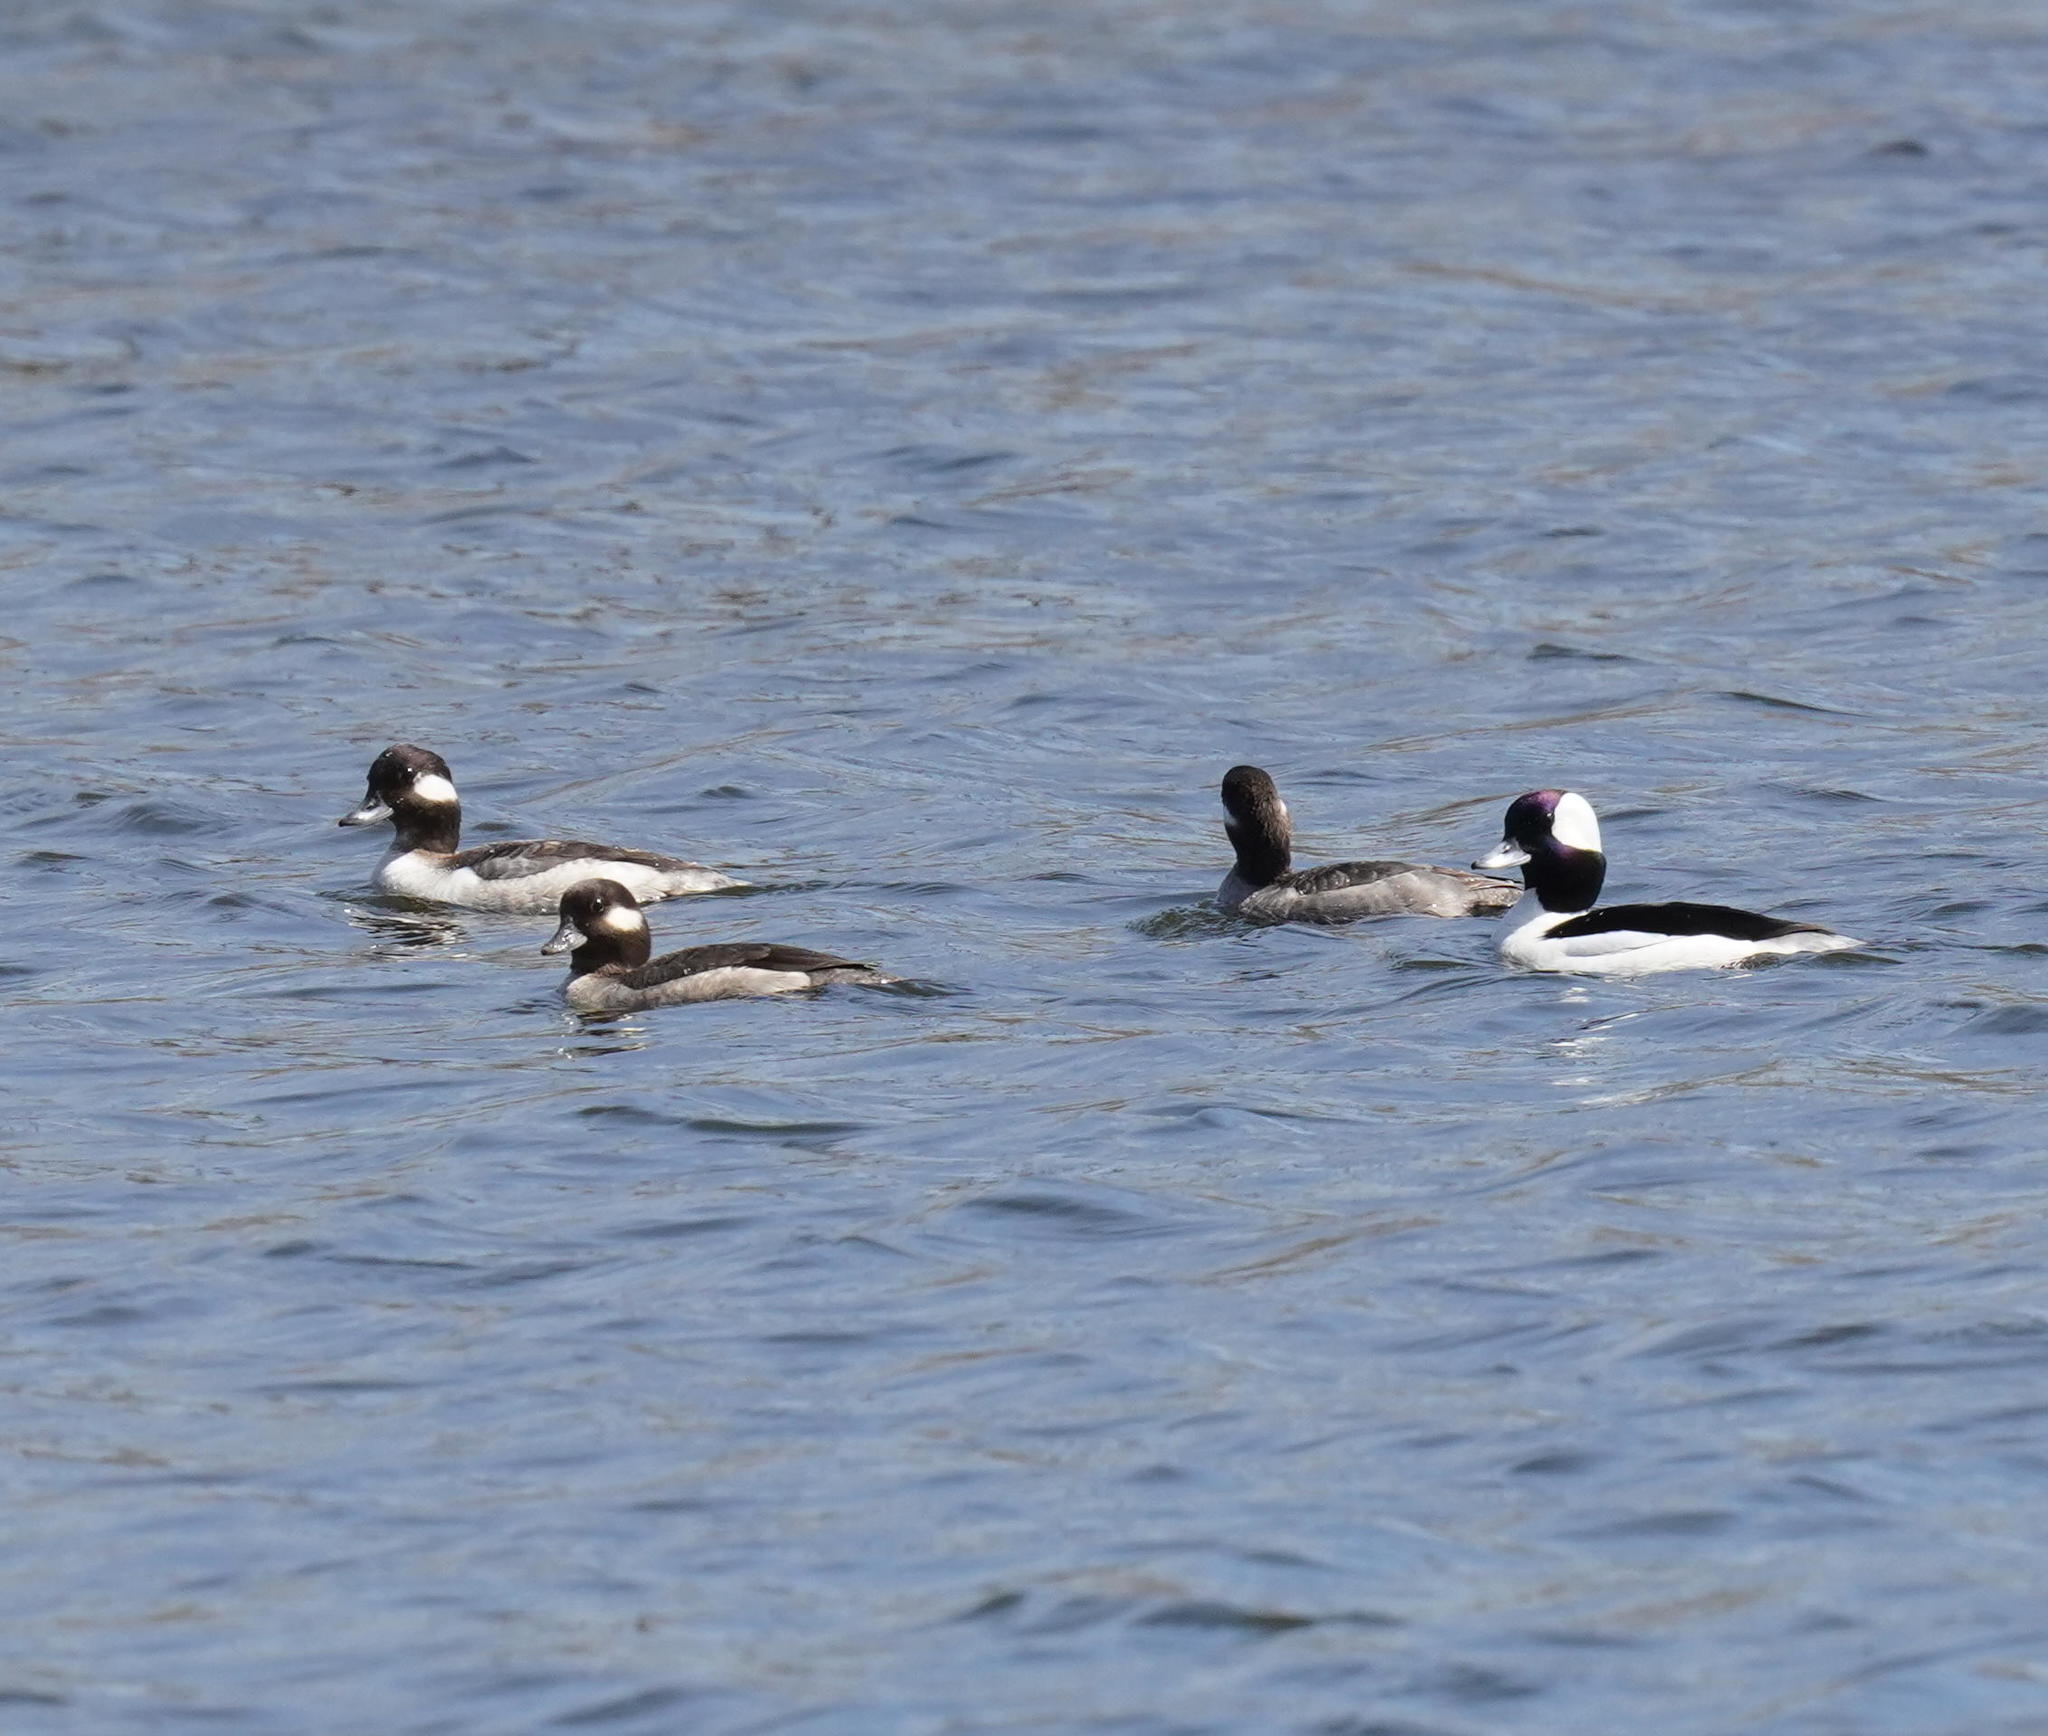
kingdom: Animalia
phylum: Chordata
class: Aves
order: Anseriformes
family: Anatidae
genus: Bucephala
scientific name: Bucephala albeola
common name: Bufflehead
